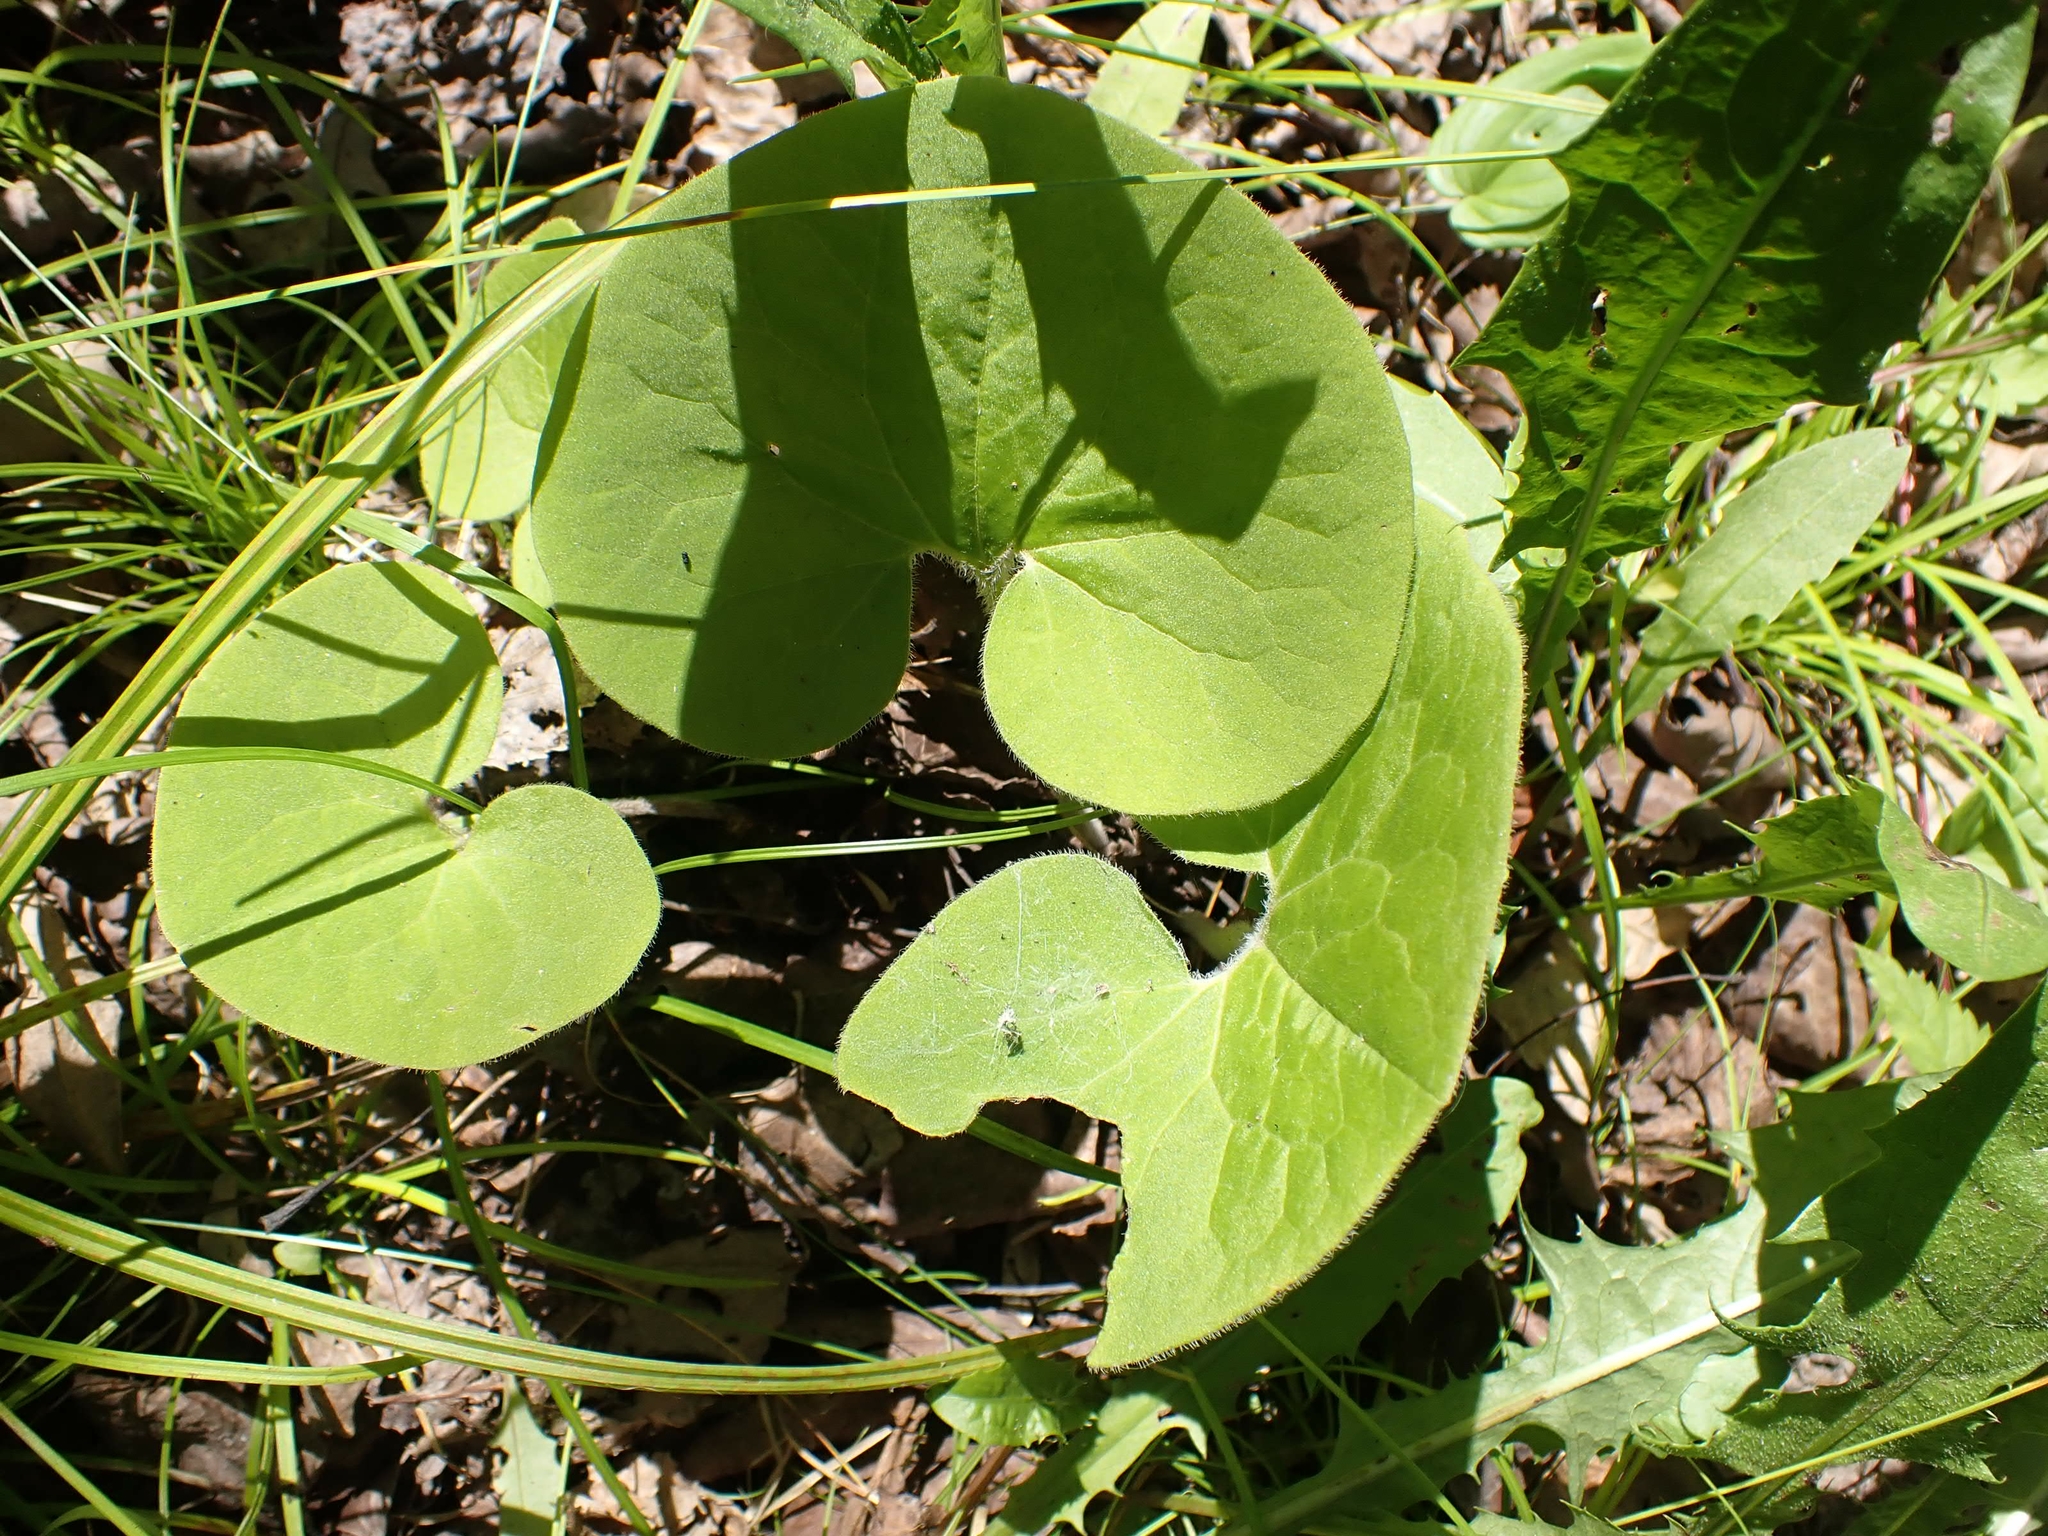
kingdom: Plantae
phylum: Tracheophyta
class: Magnoliopsida
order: Piperales
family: Aristolochiaceae
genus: Asarum
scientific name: Asarum canadense
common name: Wild ginger
